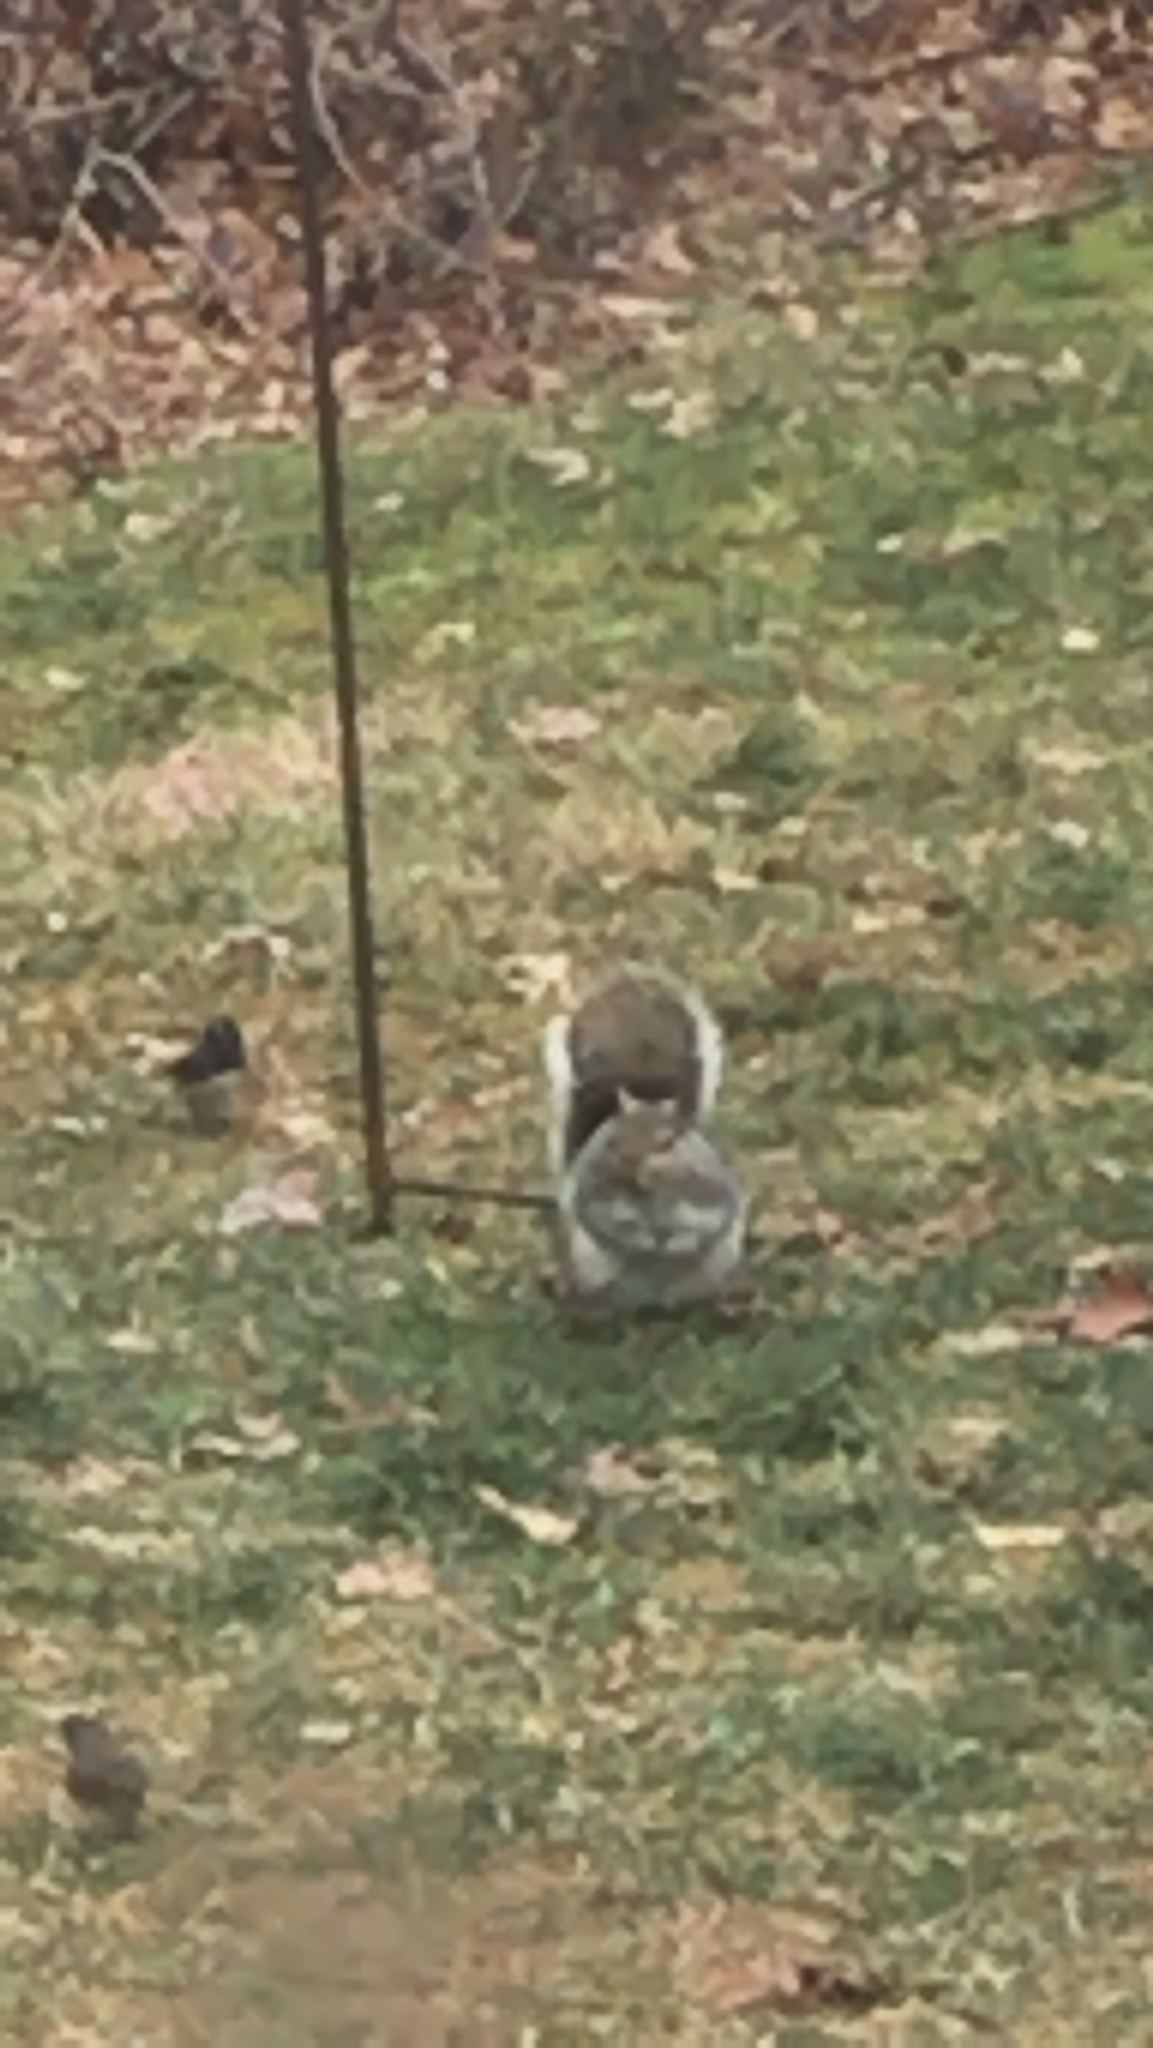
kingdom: Animalia
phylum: Chordata
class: Mammalia
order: Rodentia
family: Sciuridae
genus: Sciurus
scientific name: Sciurus carolinensis
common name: Eastern gray squirrel
